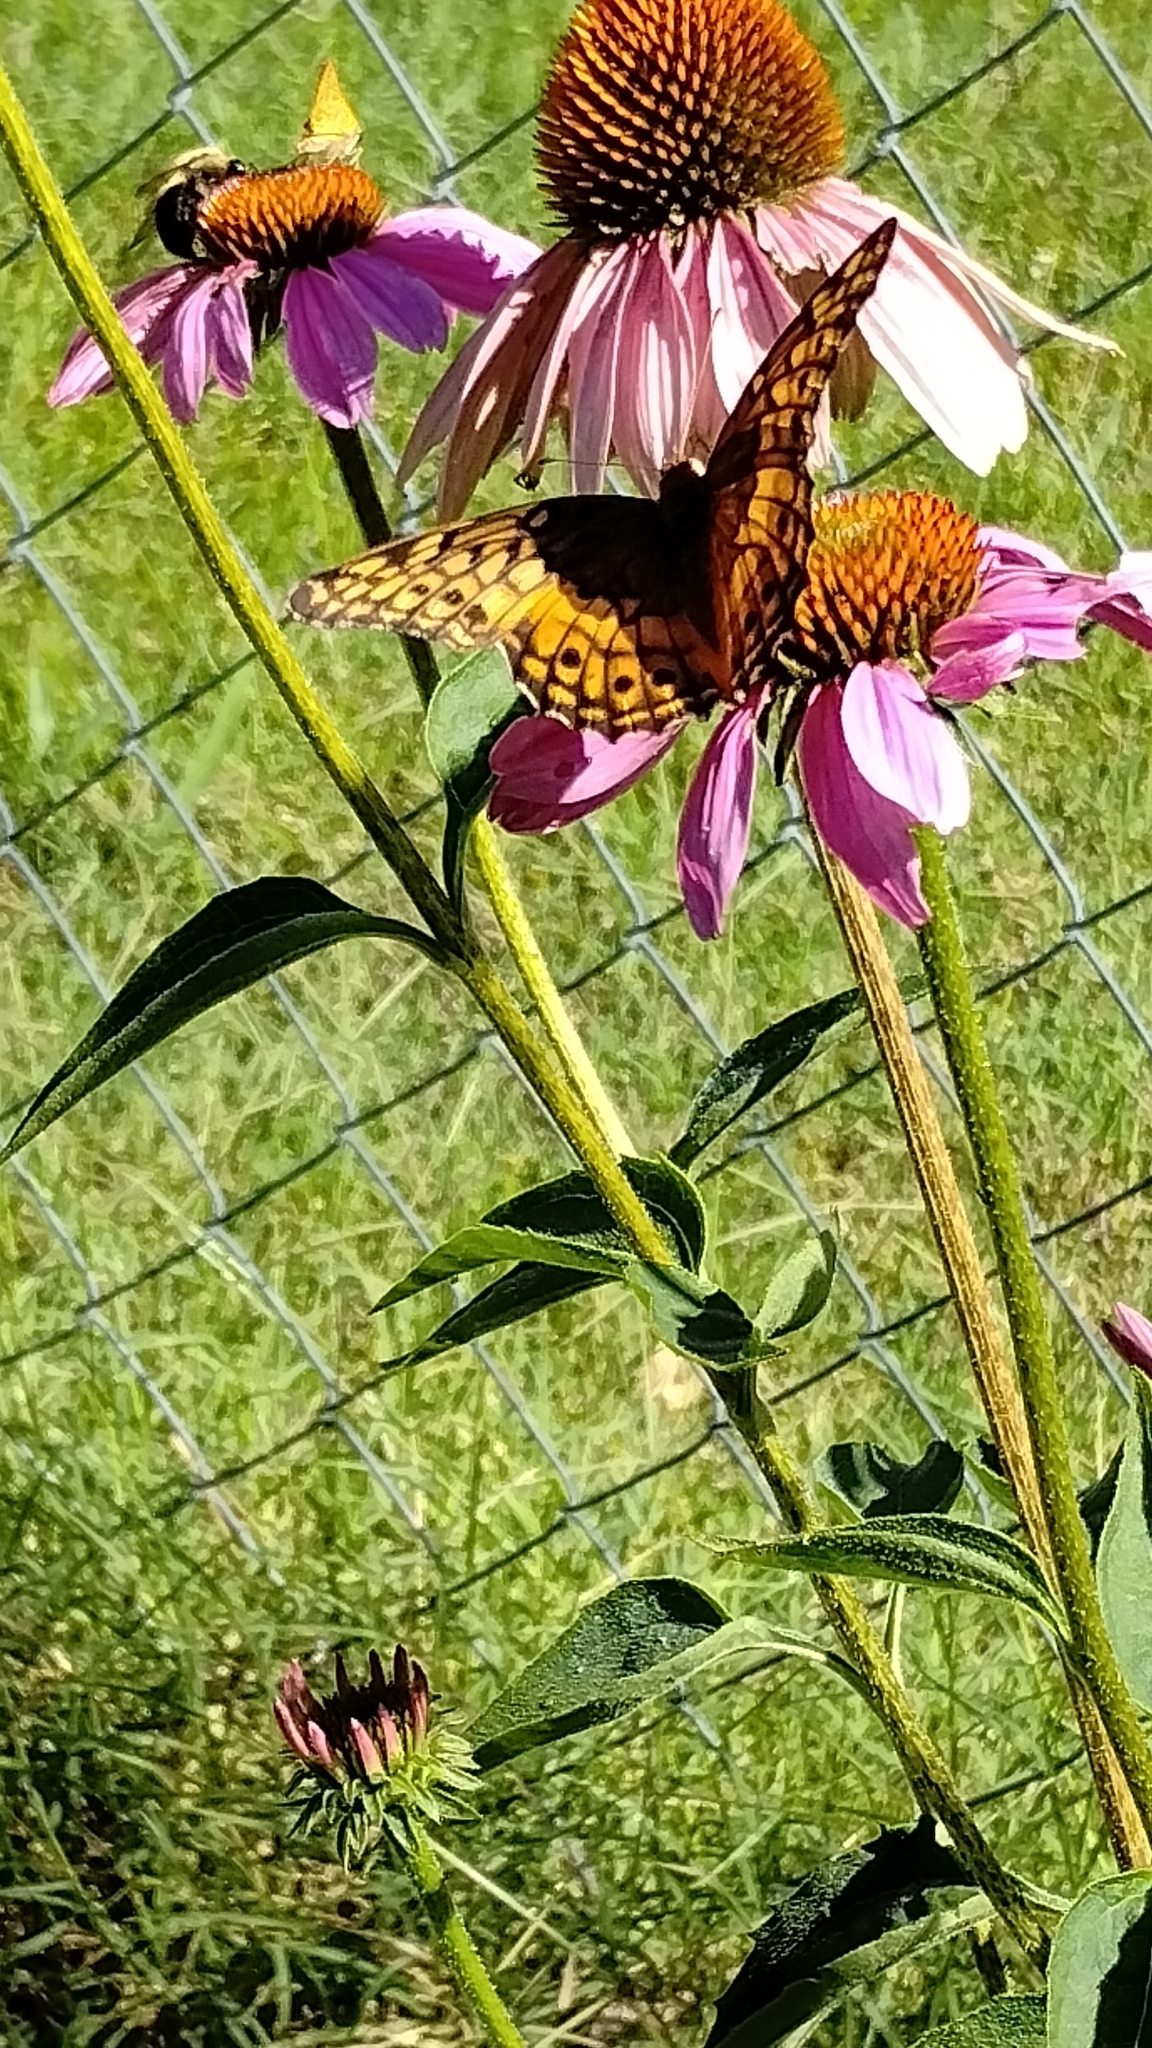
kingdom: Animalia
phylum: Arthropoda
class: Insecta
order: Lepidoptera
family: Nymphalidae
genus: Euptoieta
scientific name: Euptoieta claudia
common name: Variegated fritillary
